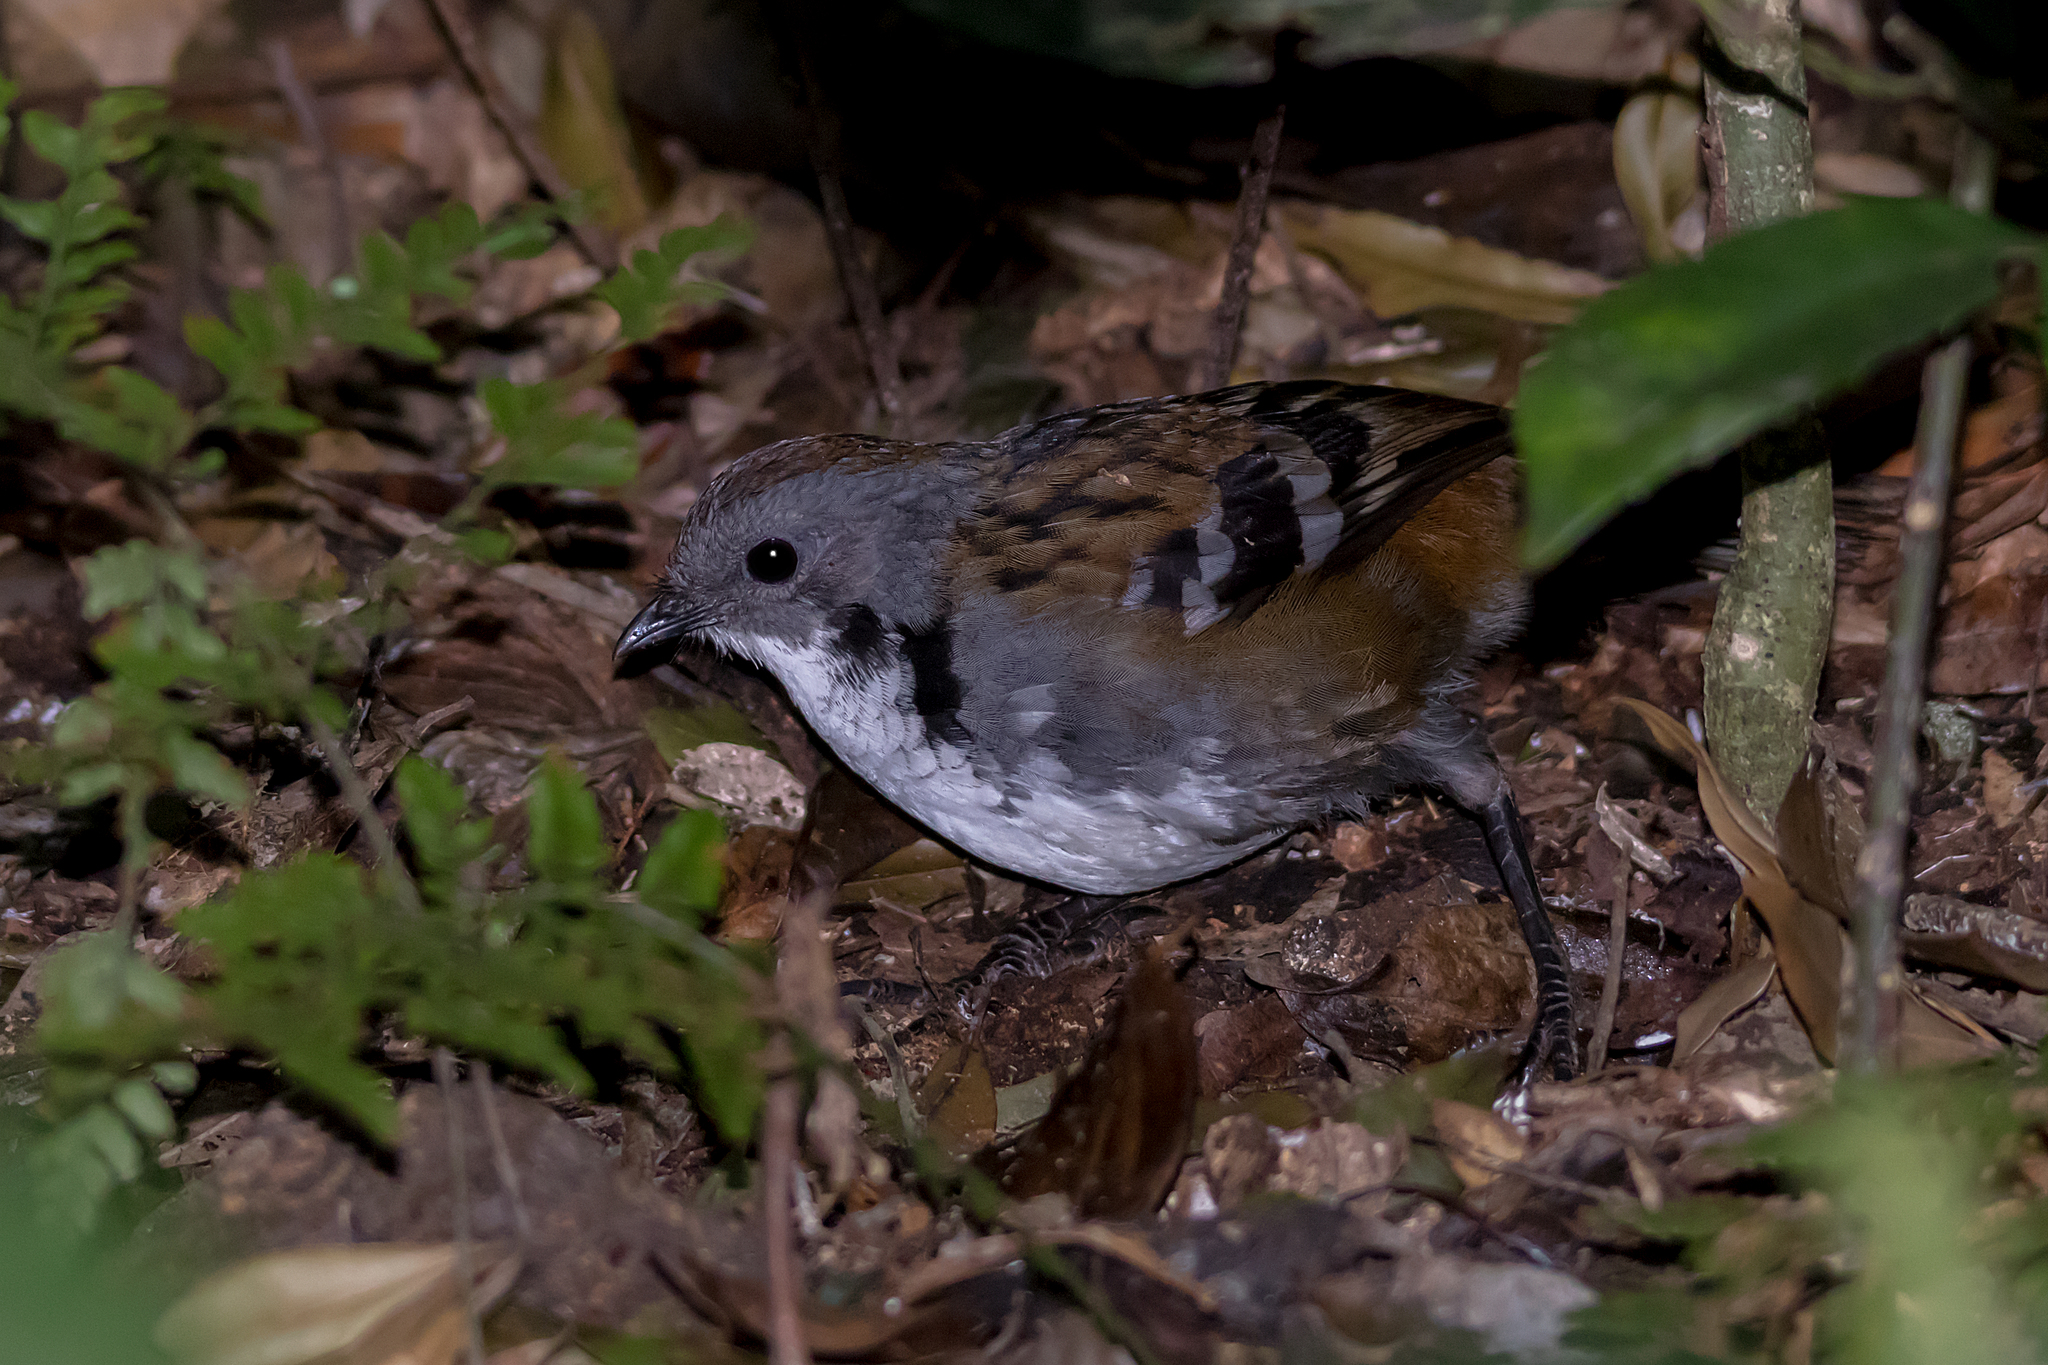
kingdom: Animalia
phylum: Chordata
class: Aves
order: Passeriformes
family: Orthonychidae
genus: Orthonyx
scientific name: Orthonyx temminckii
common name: Australian logrunner
